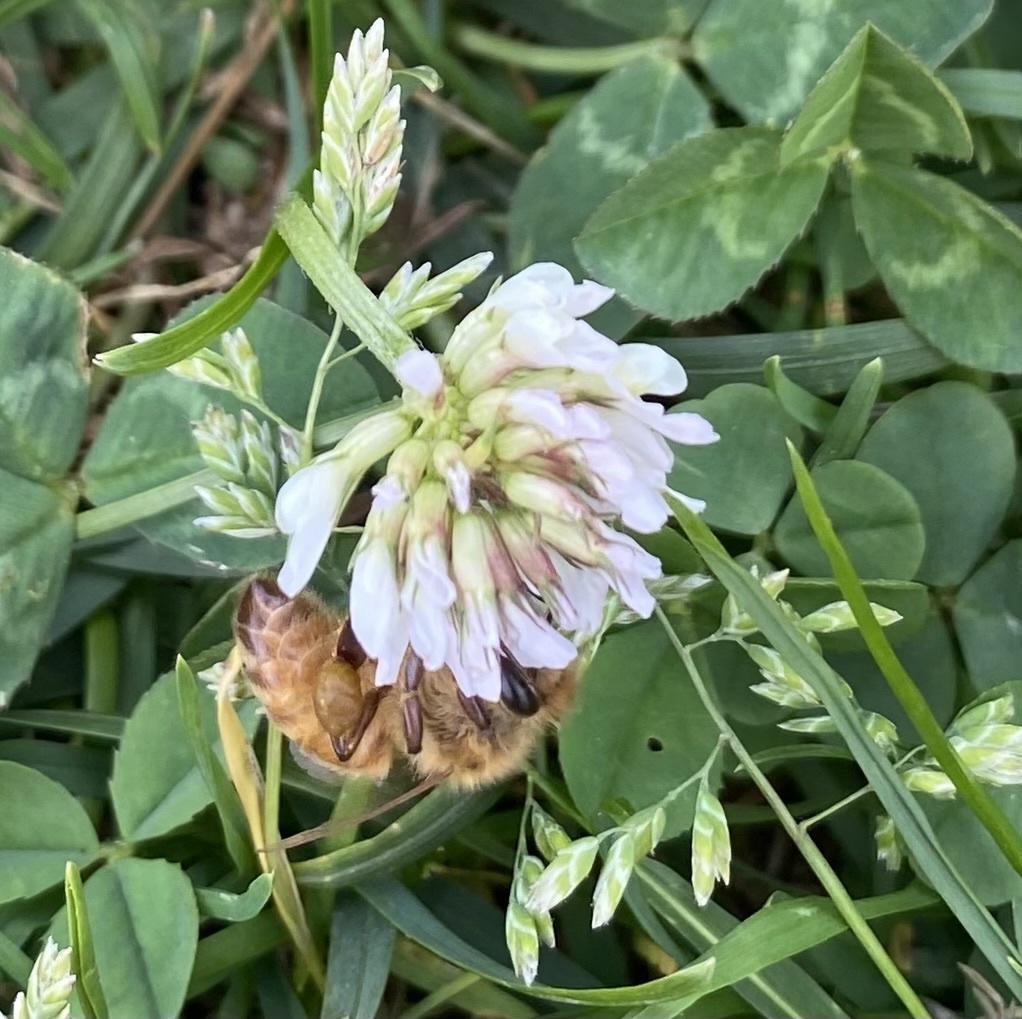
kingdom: Animalia
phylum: Arthropoda
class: Insecta
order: Hymenoptera
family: Apidae
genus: Apis
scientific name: Apis mellifera
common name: Honey bee
